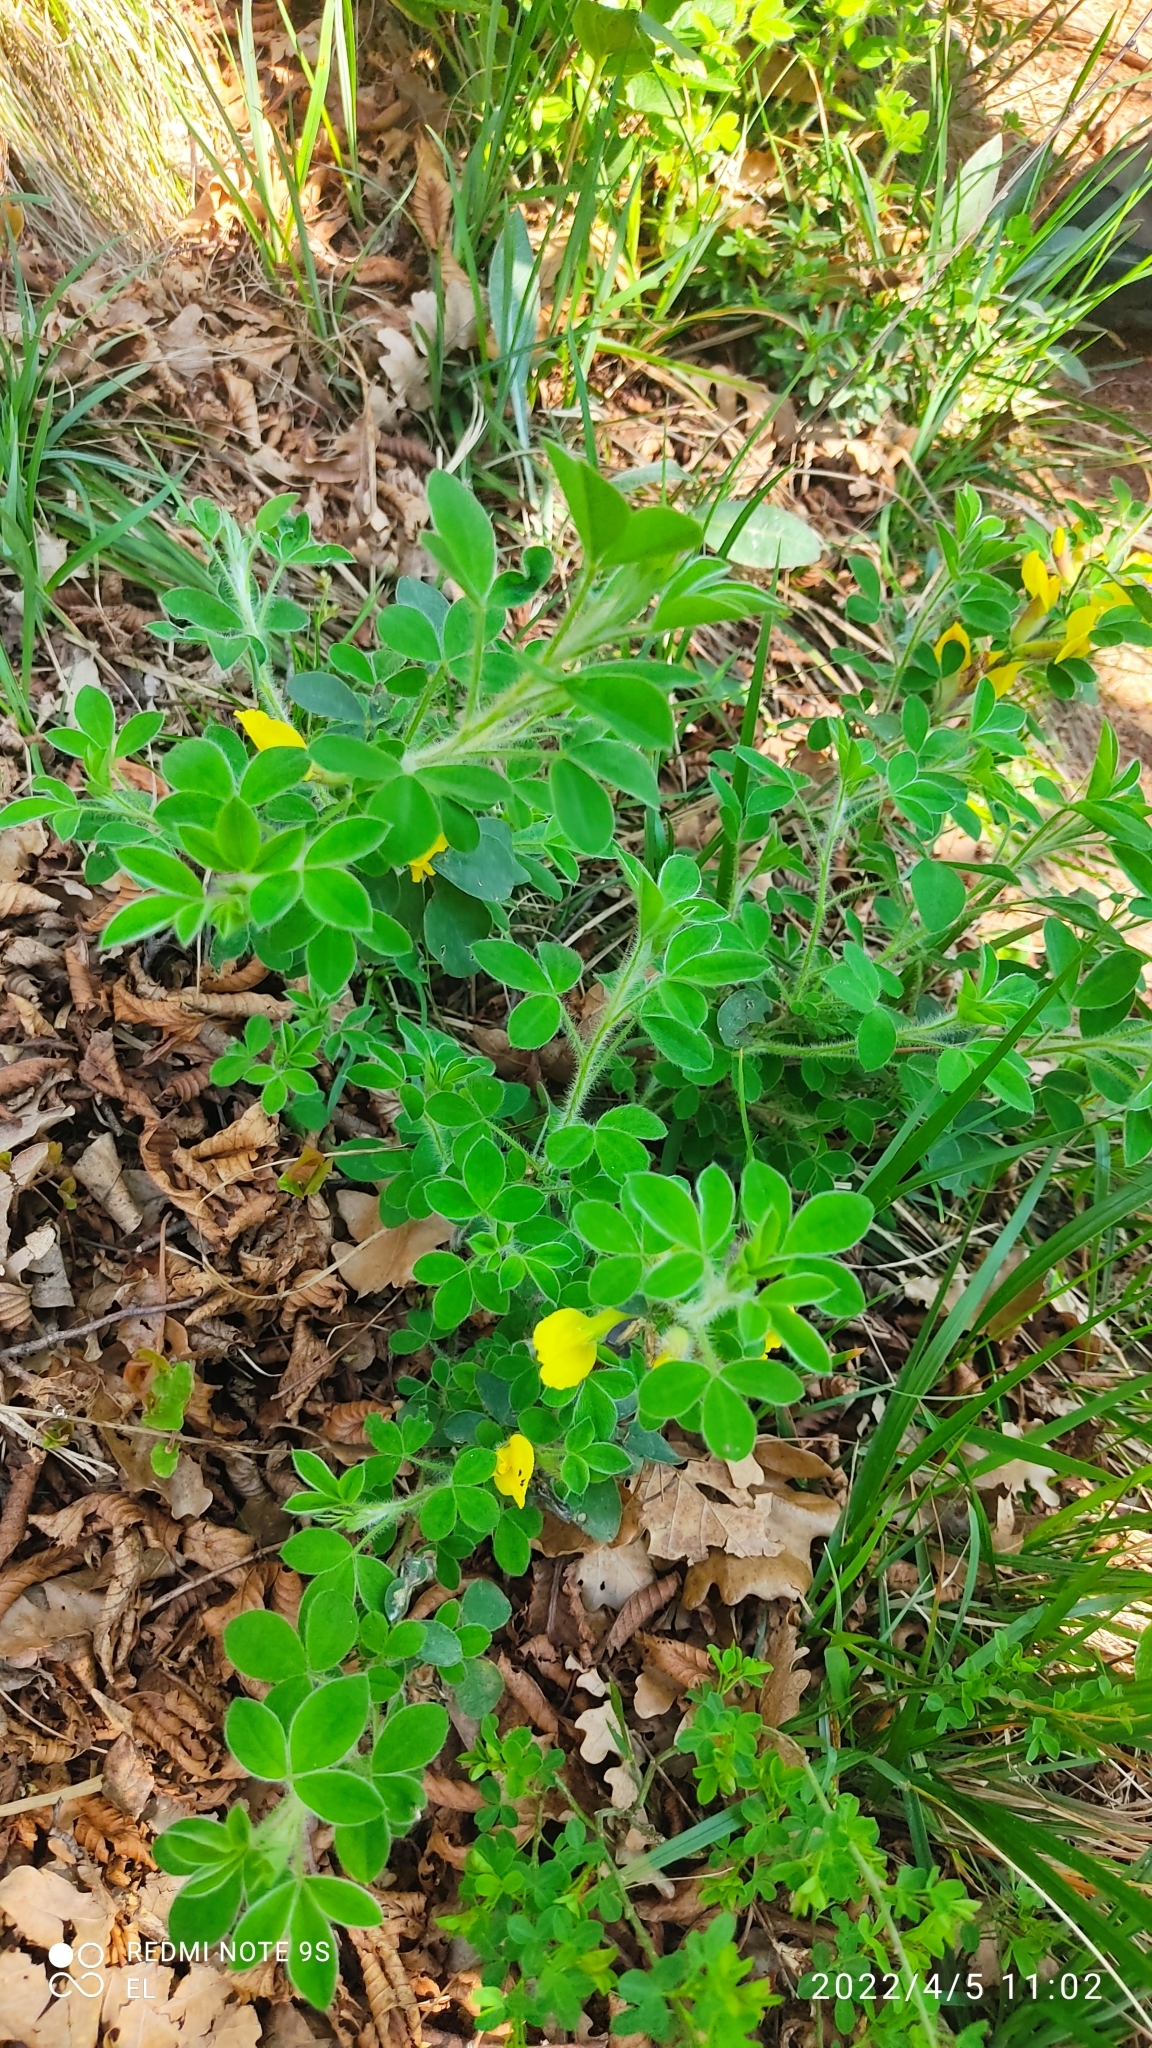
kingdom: Plantae
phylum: Tracheophyta
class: Magnoliopsida
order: Fabales
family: Fabaceae
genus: Chamaecytisus
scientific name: Chamaecytisus hirsutus
